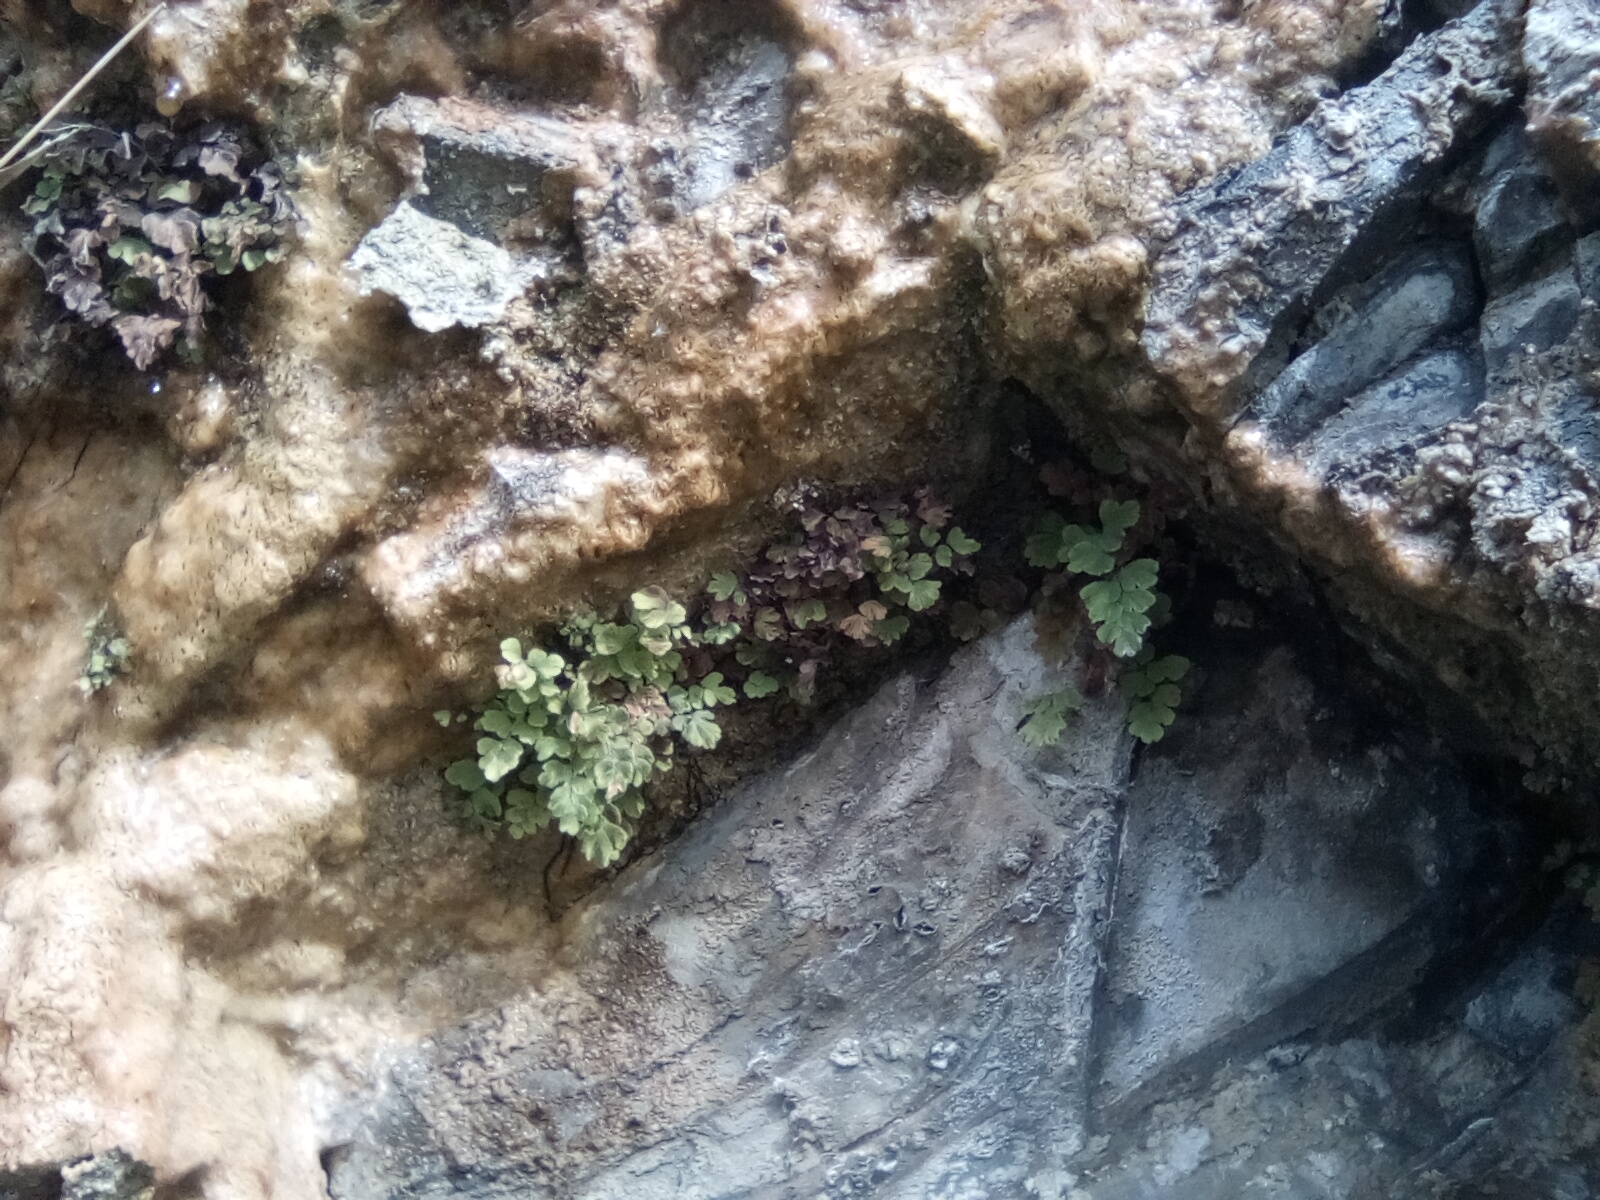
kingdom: Plantae
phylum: Tracheophyta
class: Polypodiopsida
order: Polypodiales
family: Pteridaceae
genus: Adiantum
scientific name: Adiantum capillus-veneris
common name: Maidenhair fern
